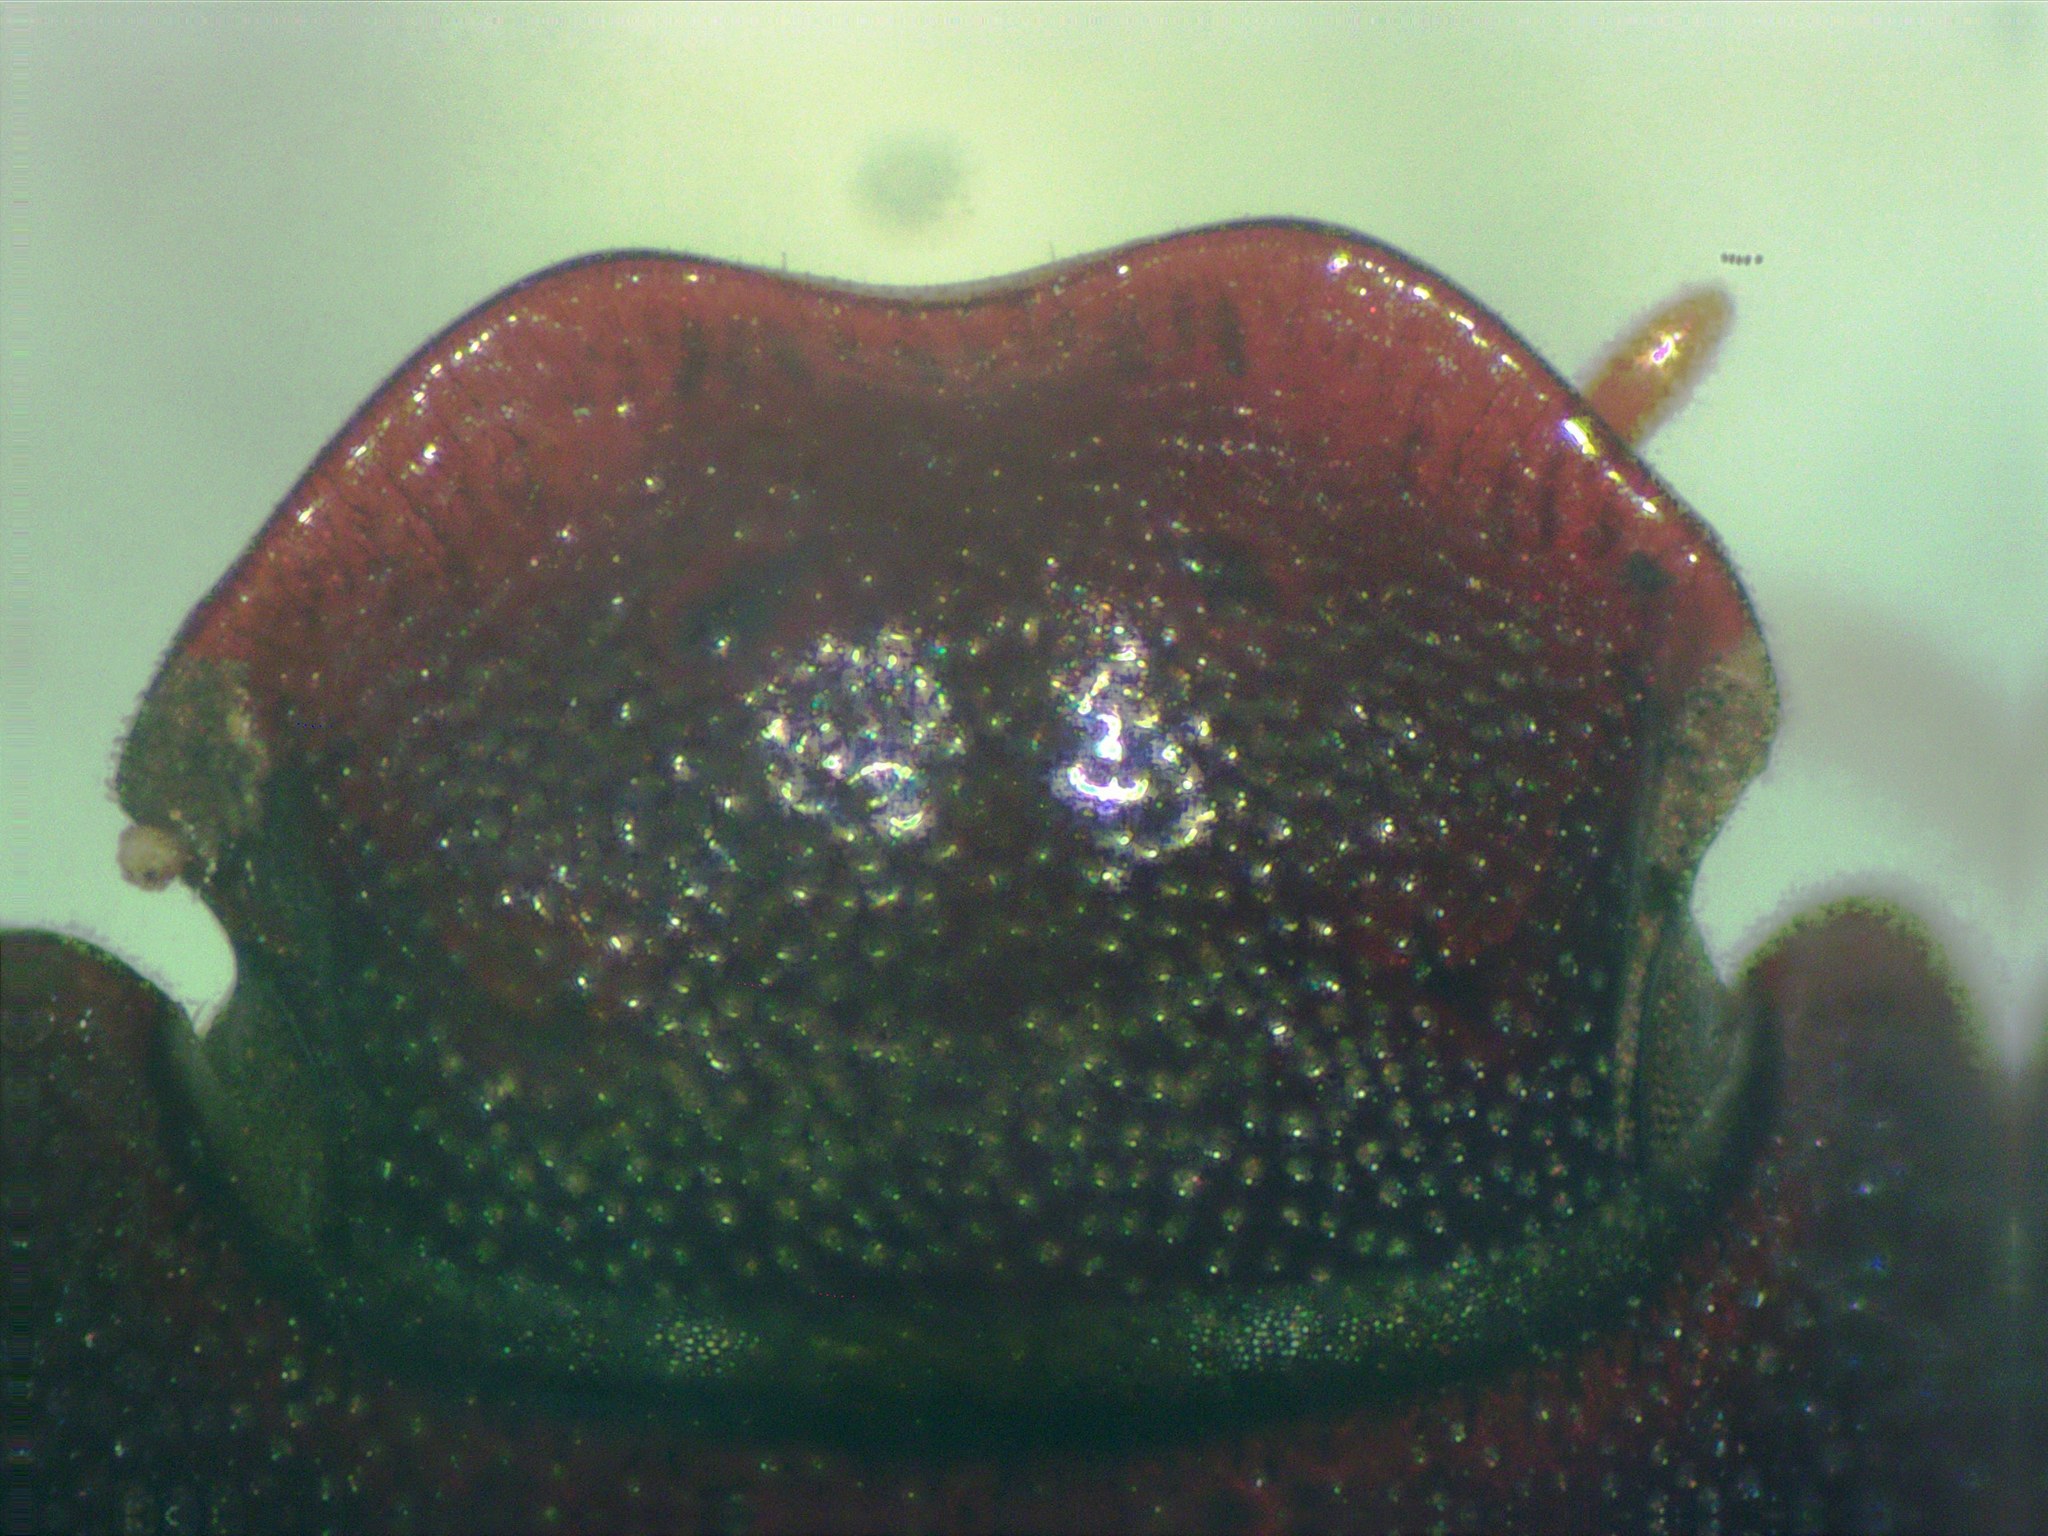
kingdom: Animalia
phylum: Arthropoda
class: Insecta
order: Coleoptera
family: Scarabaeidae
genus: Ataenius
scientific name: Ataenius strigicauda
